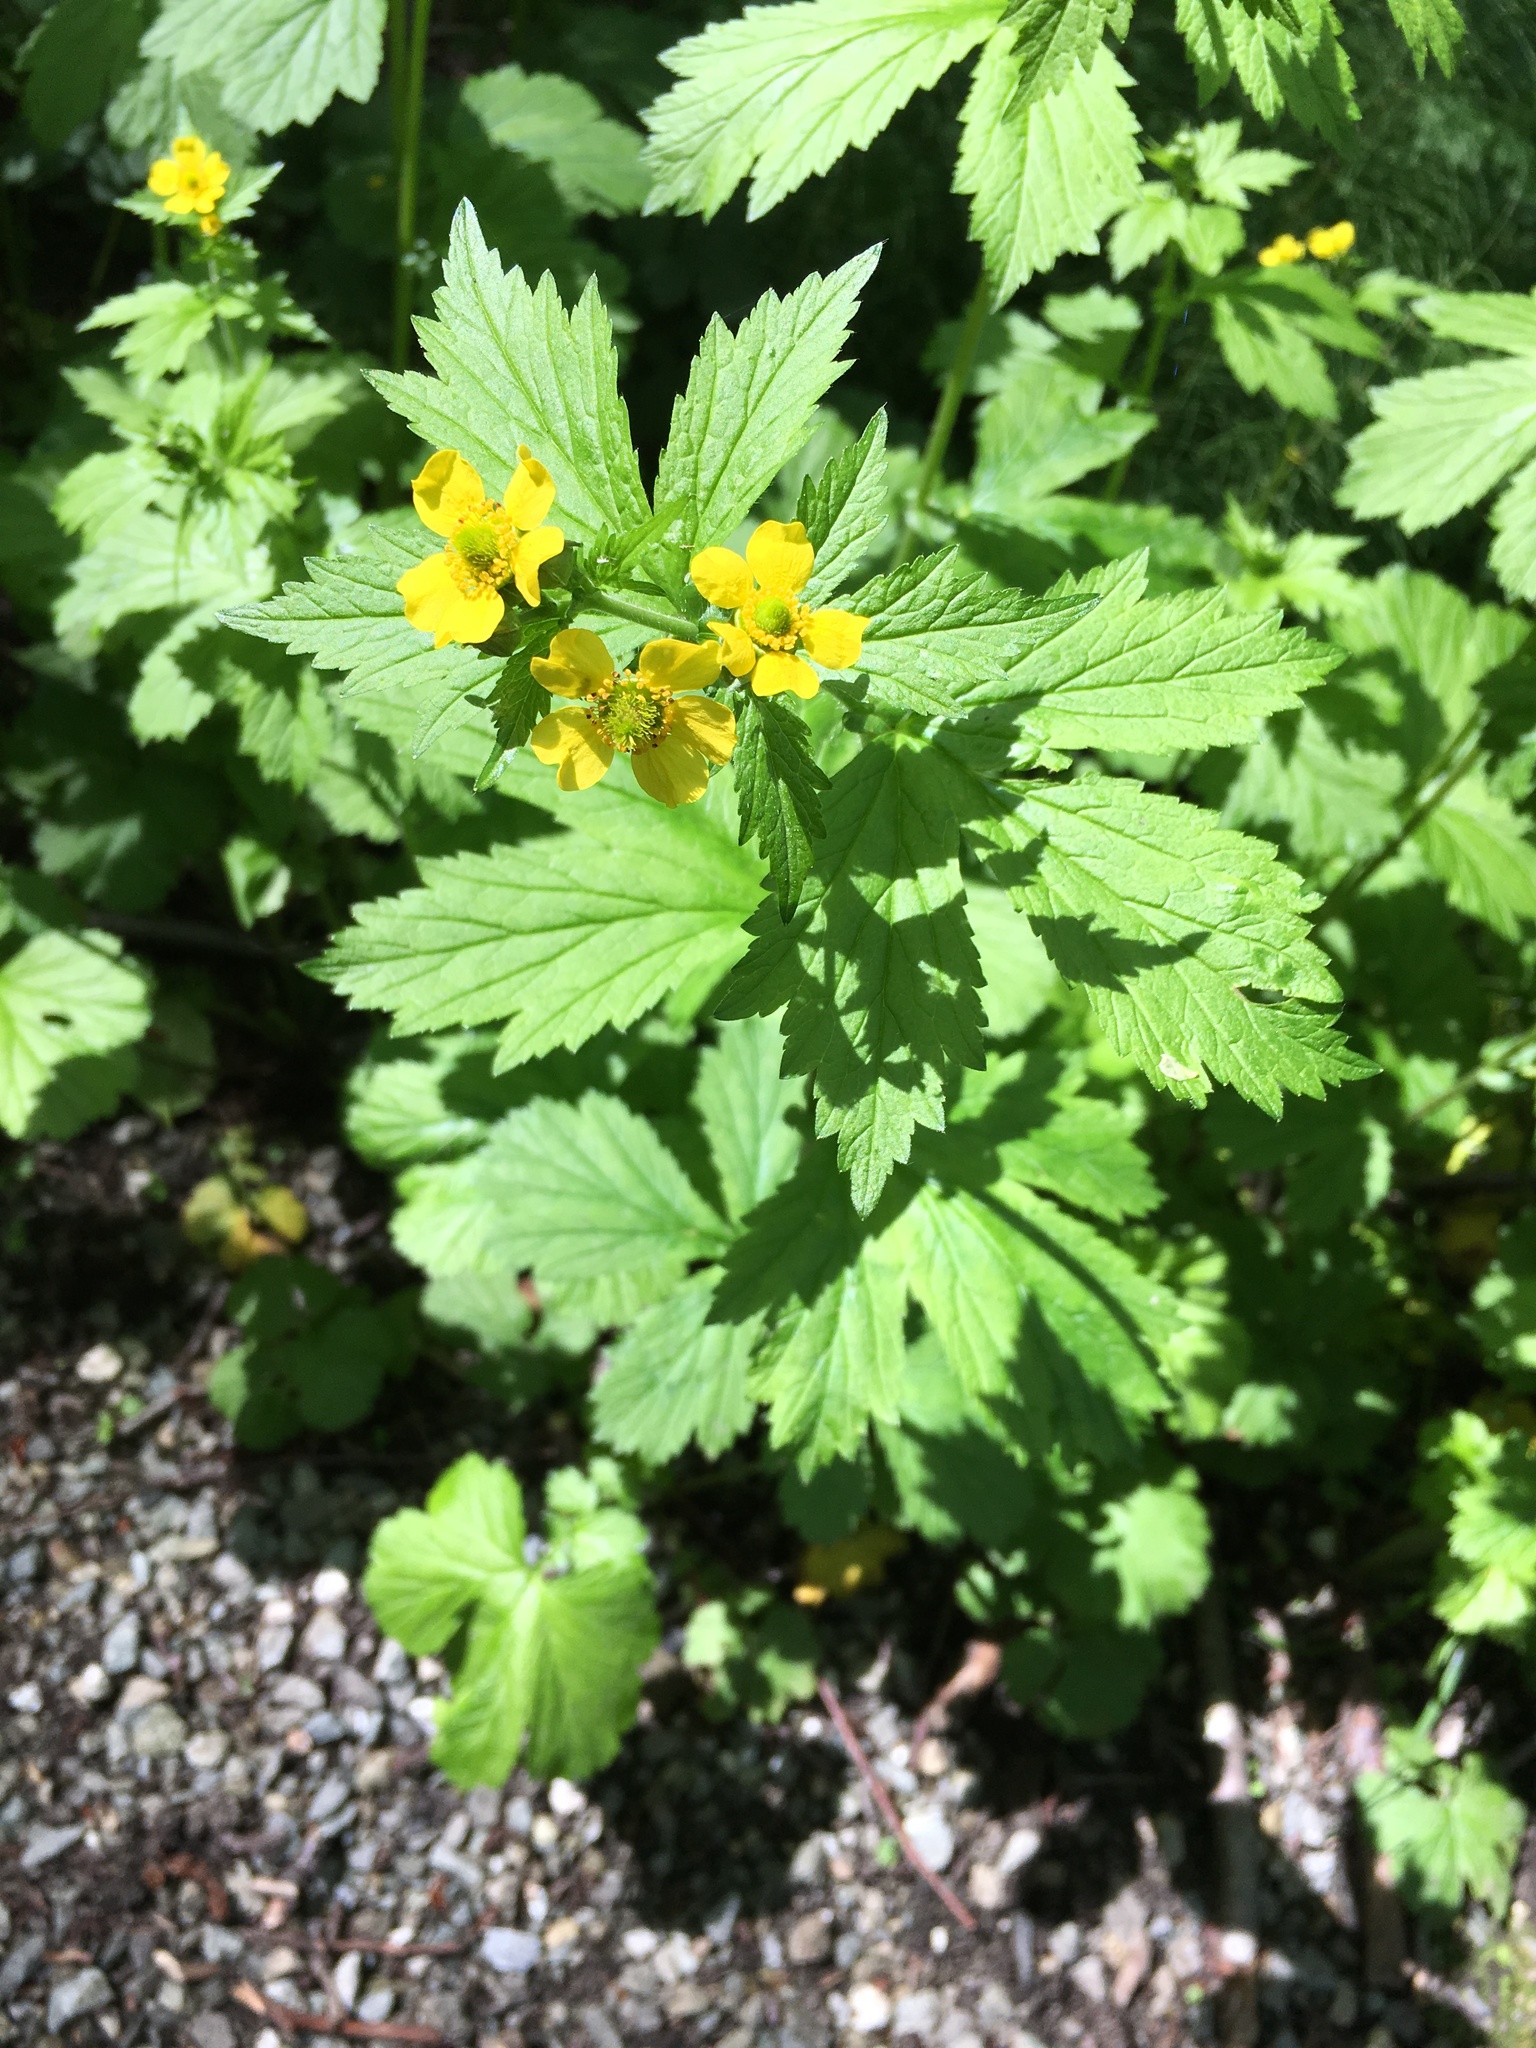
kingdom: Plantae
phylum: Tracheophyta
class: Magnoliopsida
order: Rosales
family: Rosaceae
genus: Geum
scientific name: Geum macrophyllum
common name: Large-leaved avens
